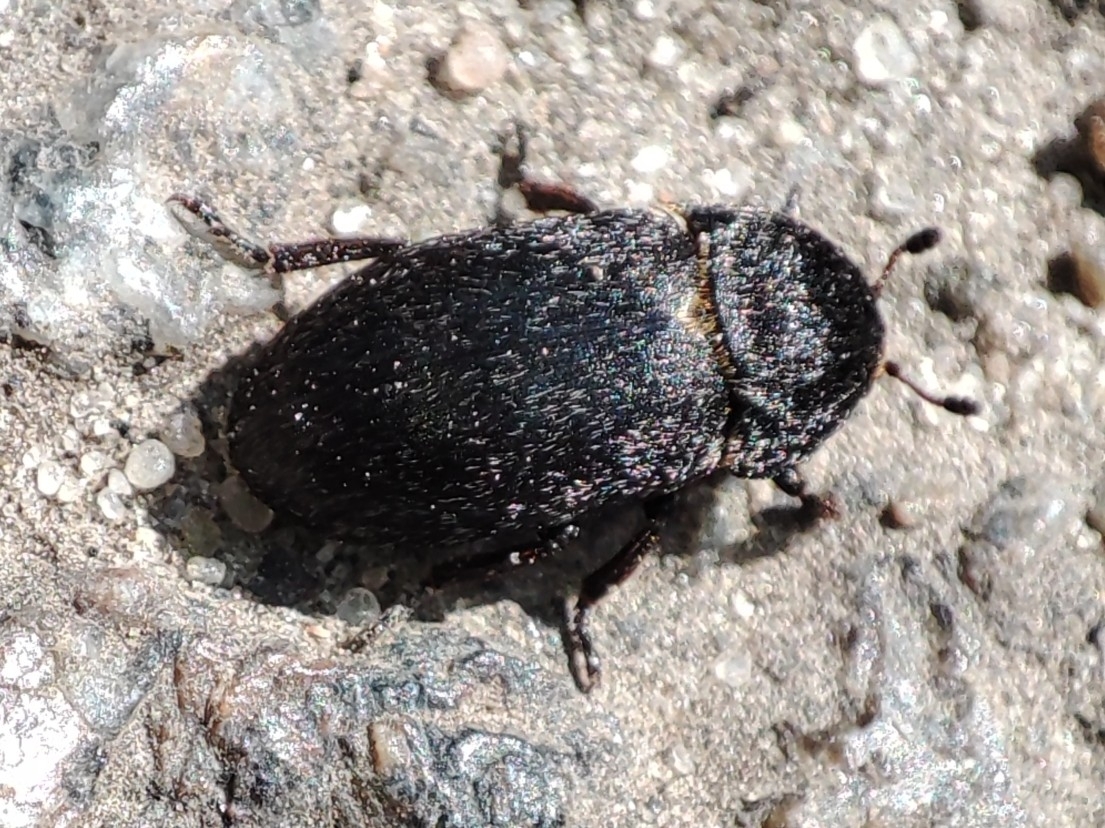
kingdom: Animalia
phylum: Arthropoda
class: Insecta
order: Coleoptera
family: Dermestidae
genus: Dermestes
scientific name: Dermestes laniarius
